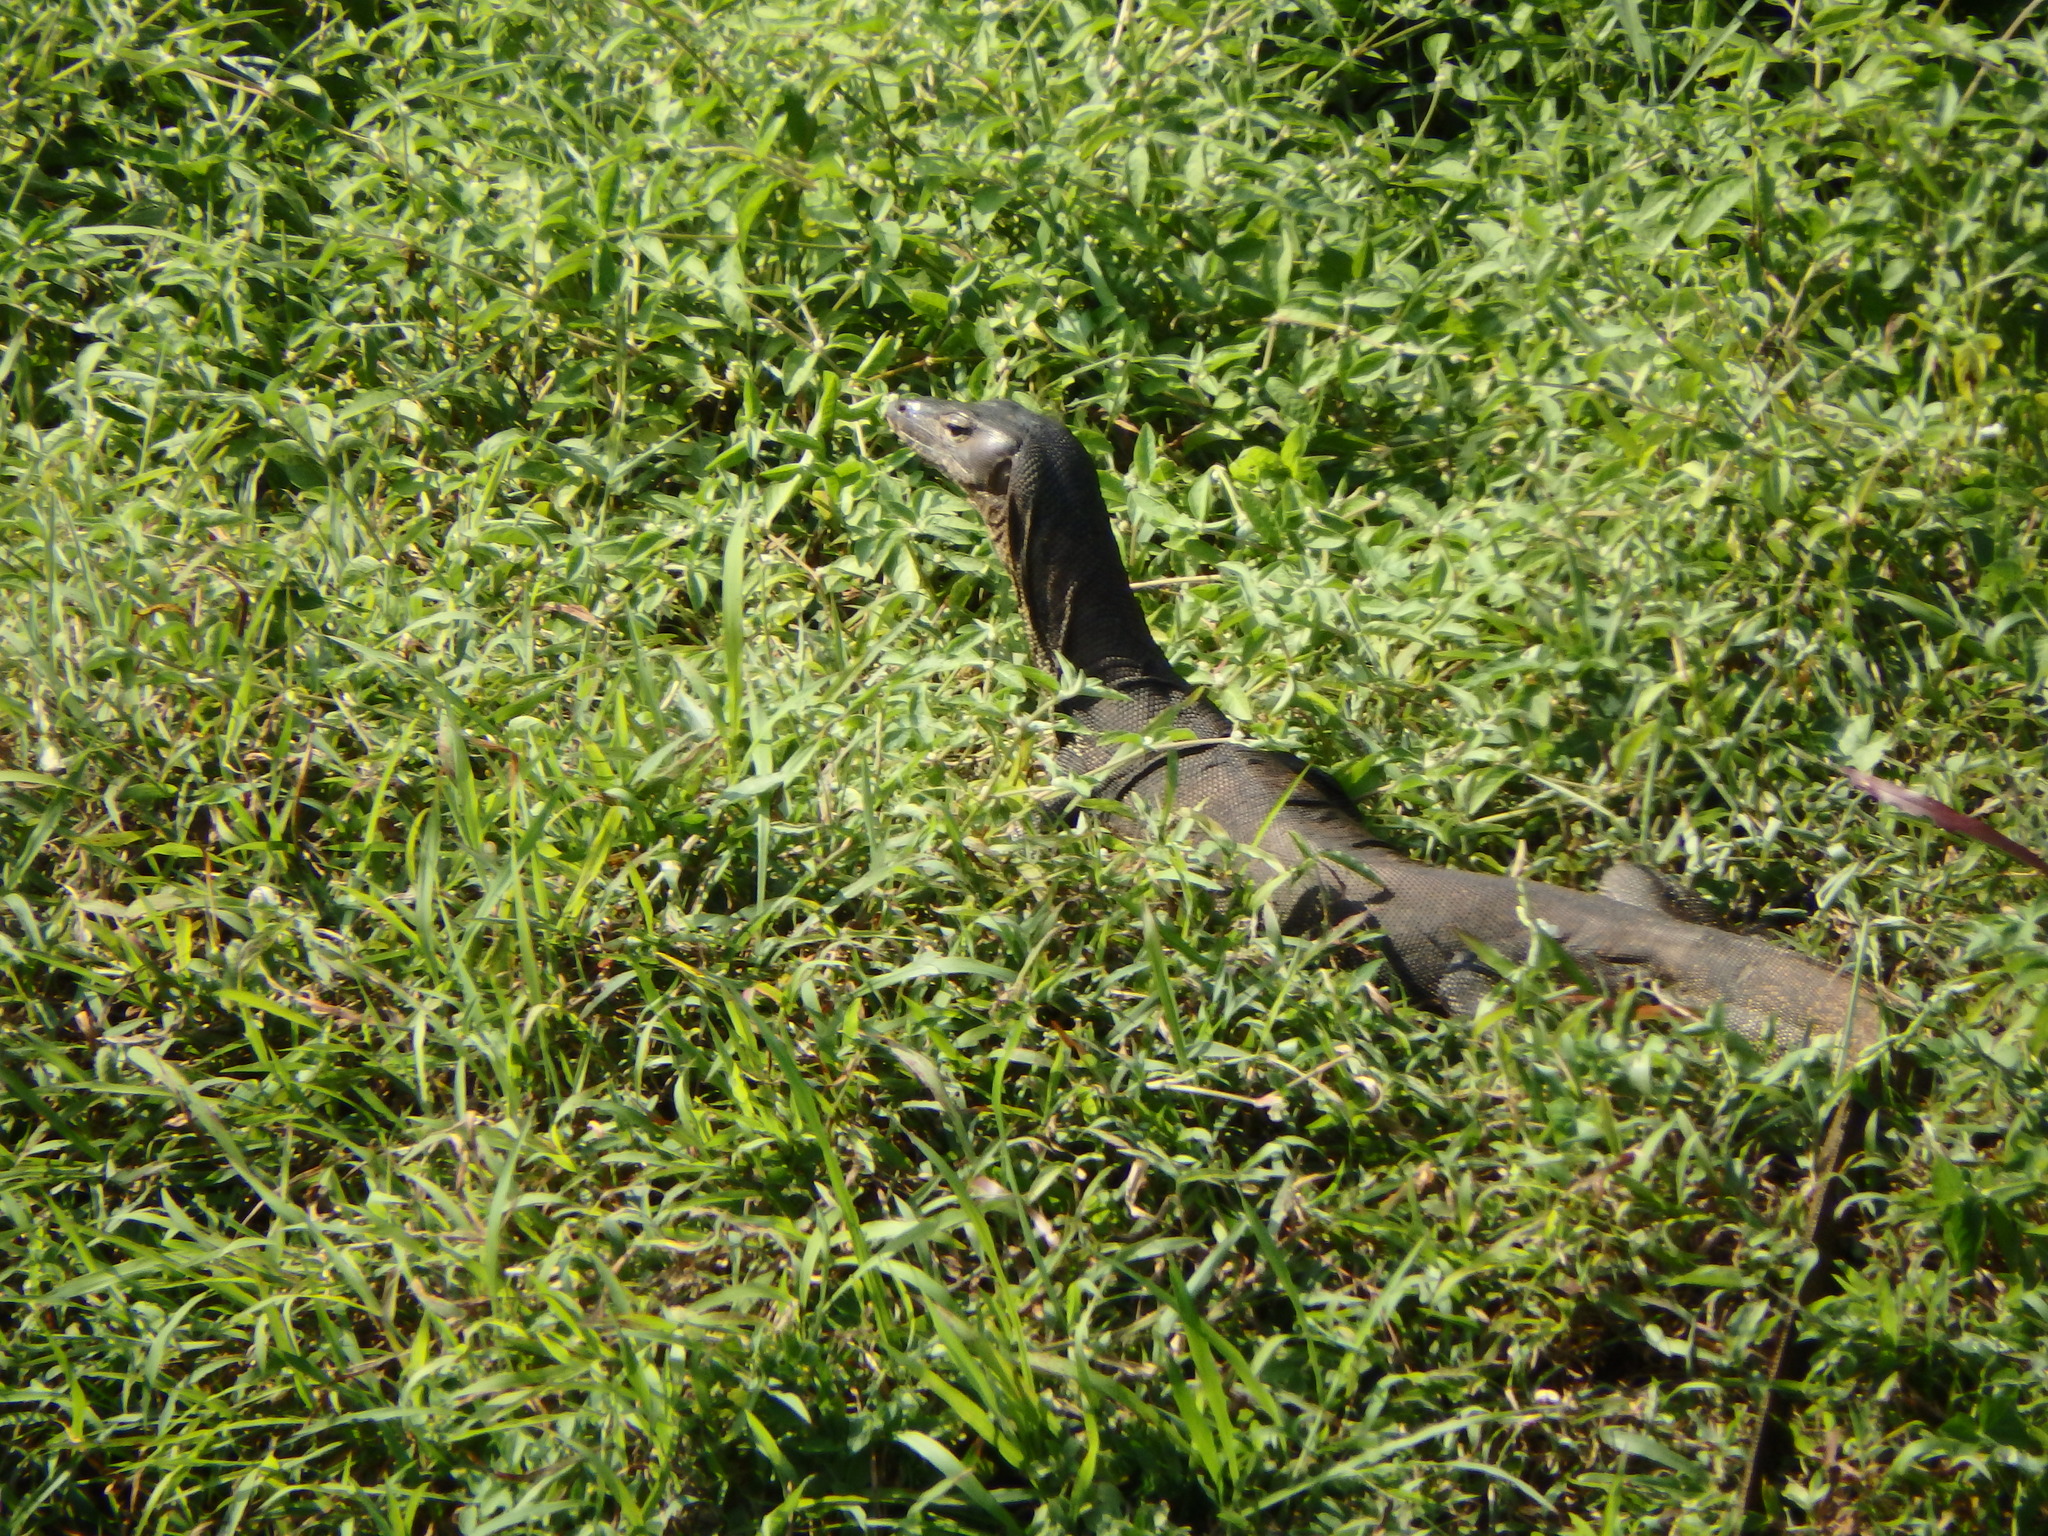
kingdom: Animalia
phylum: Chordata
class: Squamata
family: Varanidae
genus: Varanus
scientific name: Varanus salvator
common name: Common water monitor
